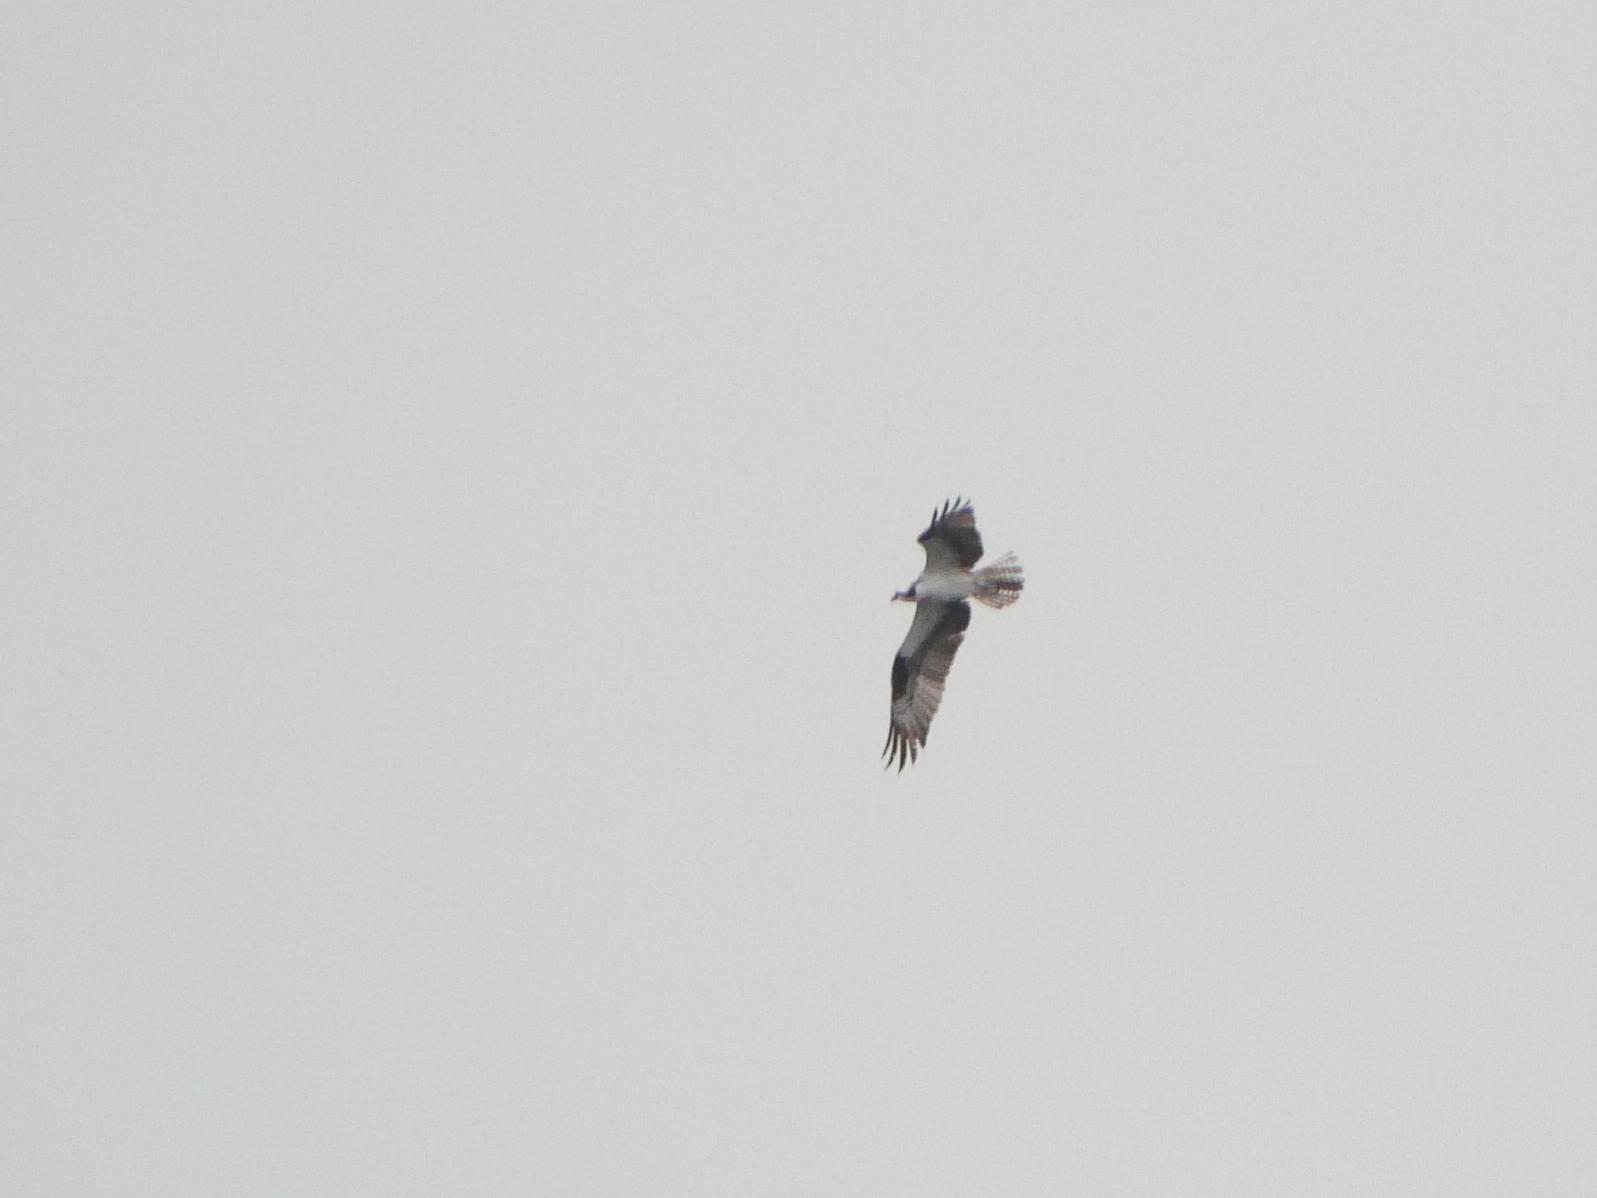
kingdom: Animalia
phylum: Chordata
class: Aves
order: Accipitriformes
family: Pandionidae
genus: Pandion
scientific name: Pandion haliaetus
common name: Osprey
